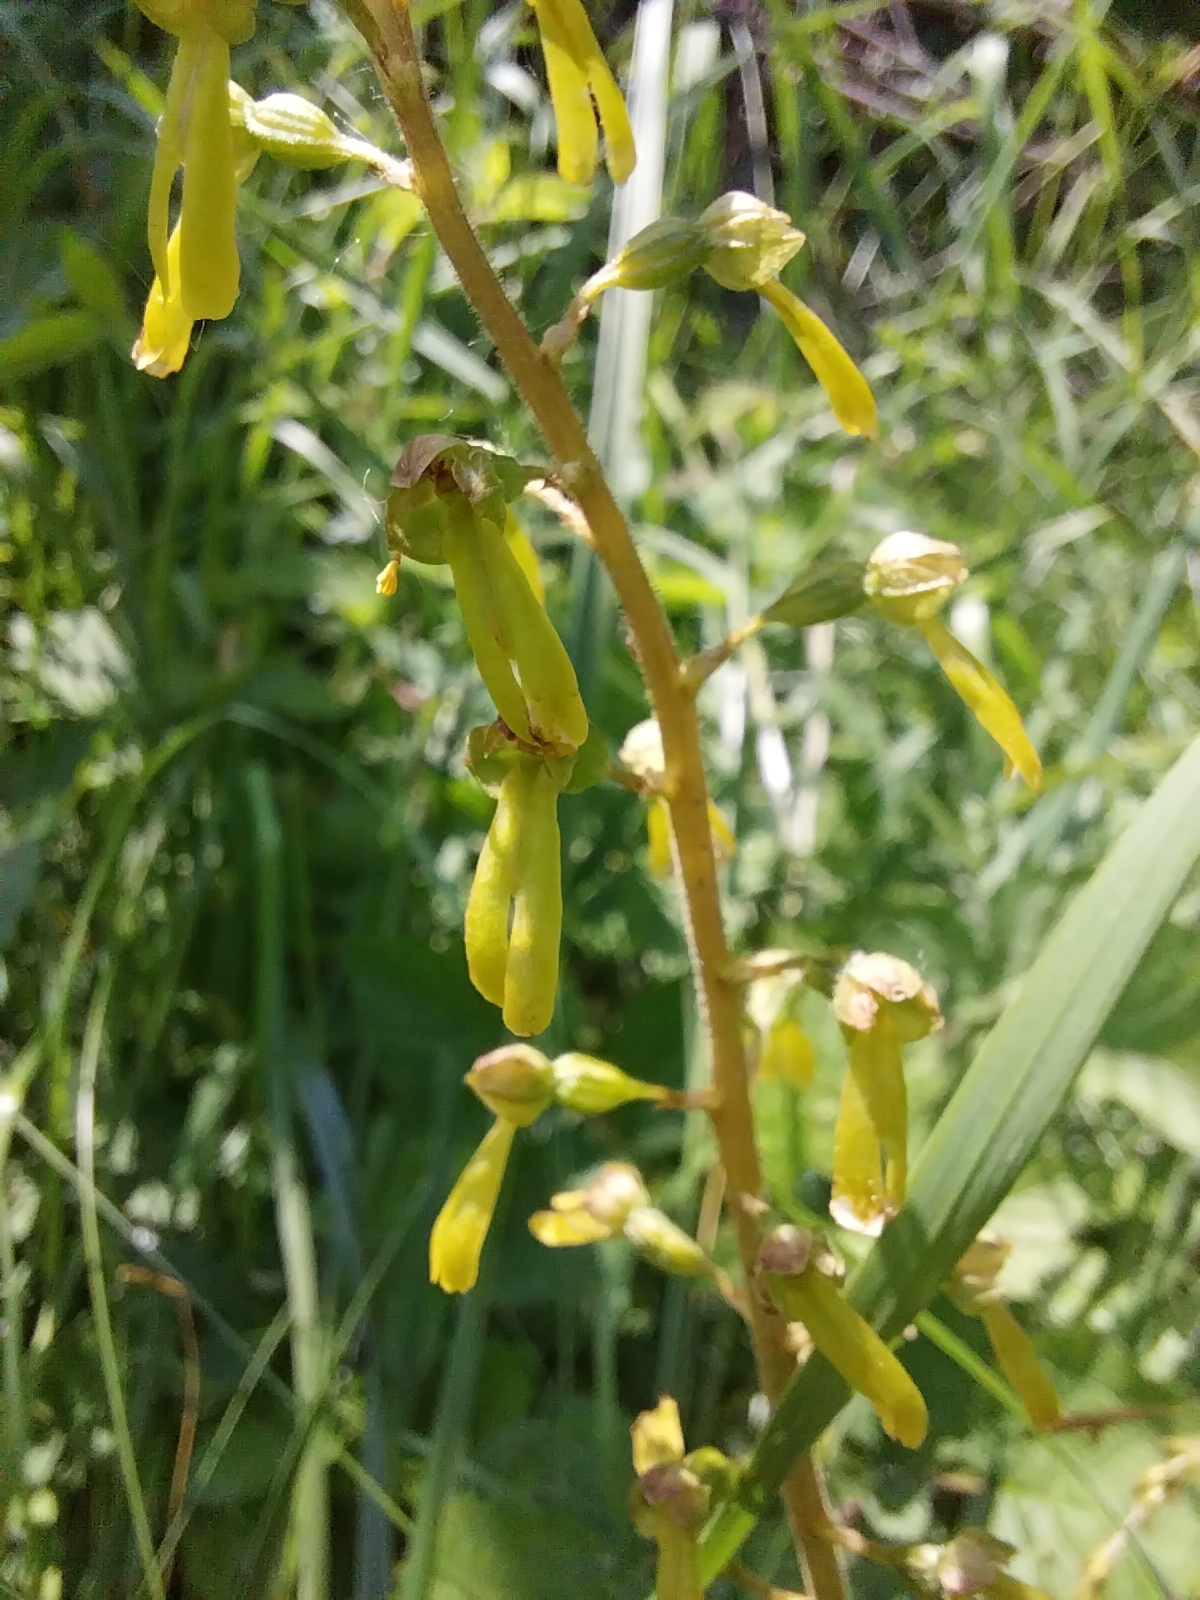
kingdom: Plantae
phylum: Tracheophyta
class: Liliopsida
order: Asparagales
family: Orchidaceae
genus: Neottia
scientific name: Neottia ovata
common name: Common twayblade
